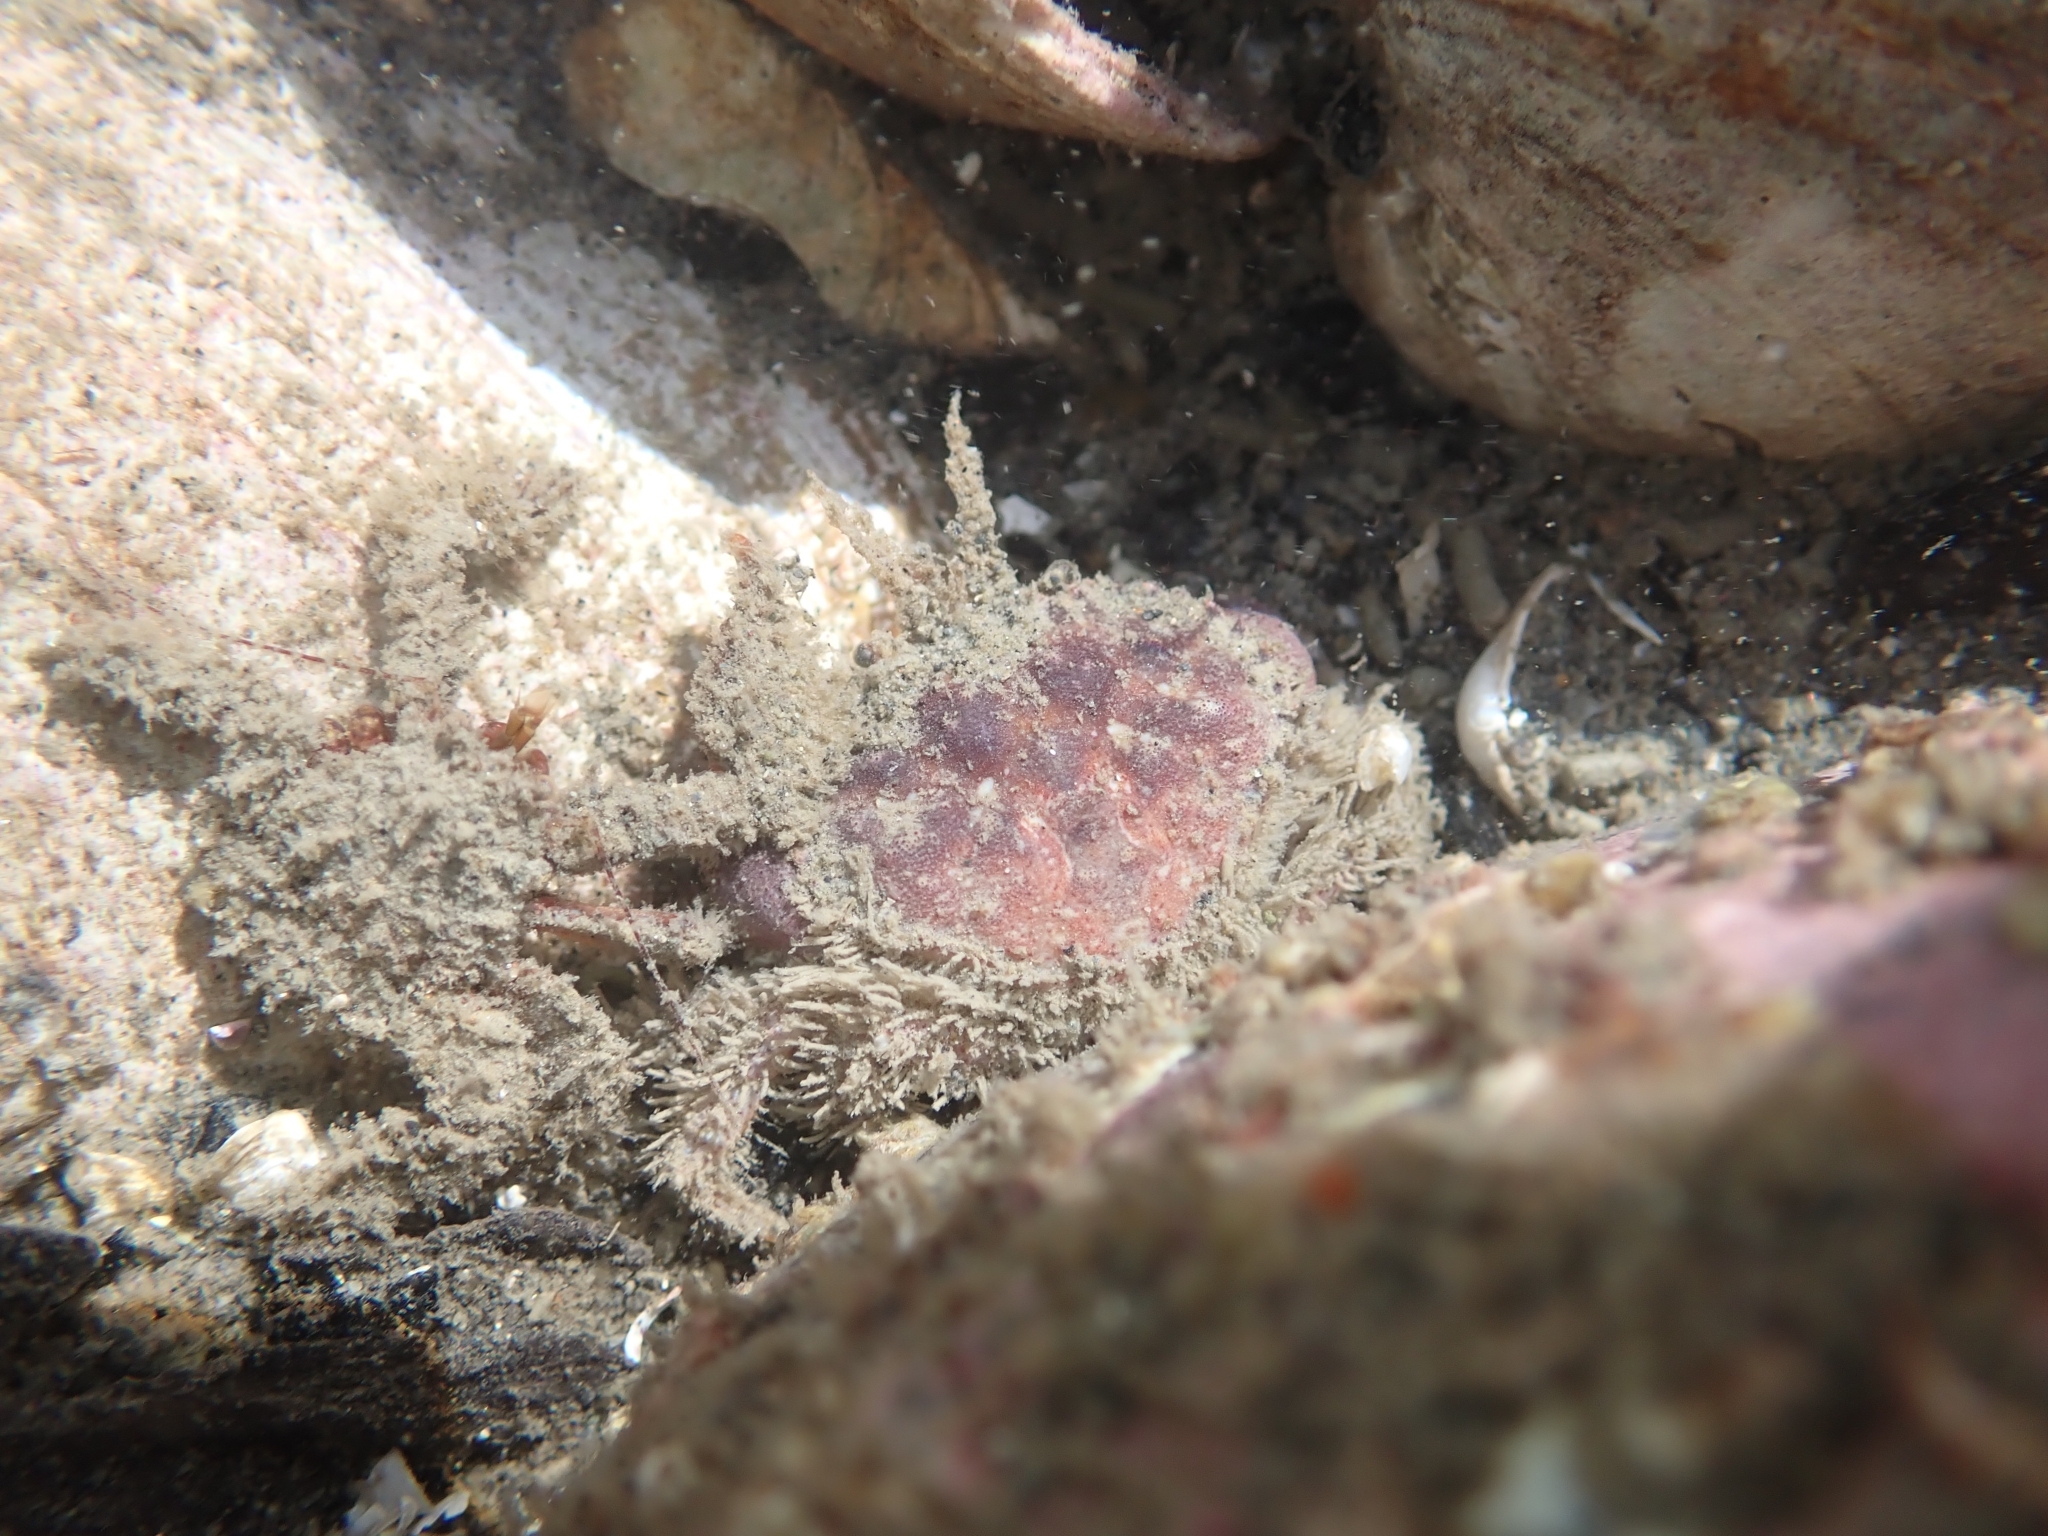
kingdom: Animalia
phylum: Arthropoda
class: Malacostraca
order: Decapoda
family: Cancridae
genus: Glebocarcinus
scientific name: Glebocarcinus oregonensis
